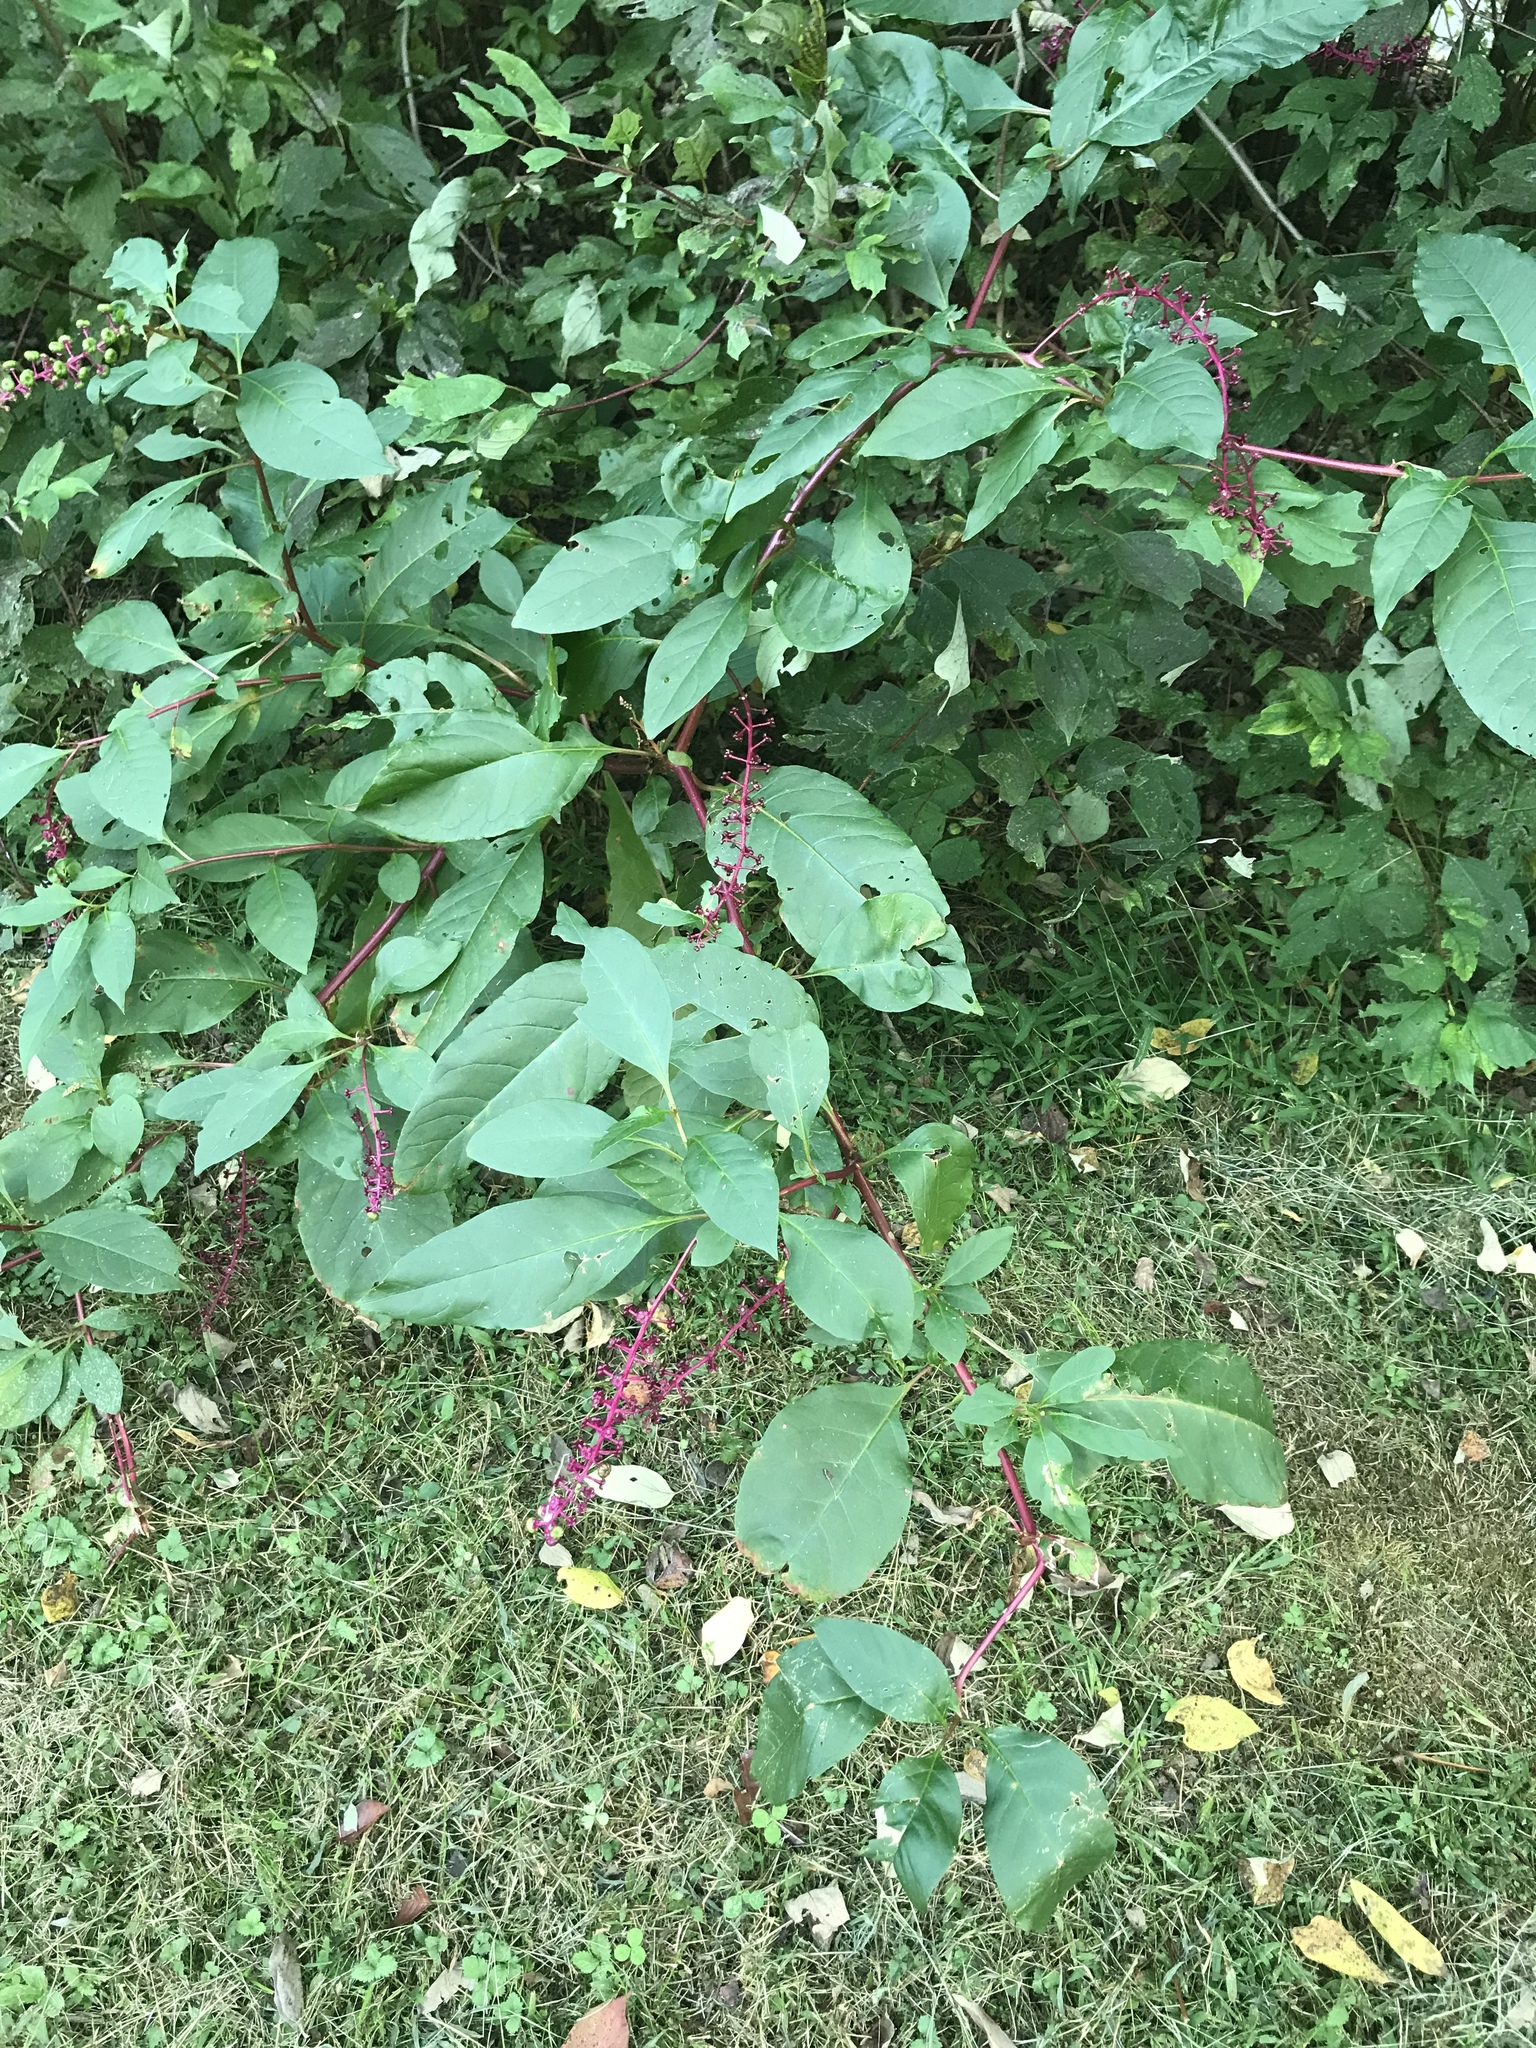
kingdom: Plantae
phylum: Tracheophyta
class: Magnoliopsida
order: Caryophyllales
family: Phytolaccaceae
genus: Phytolacca
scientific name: Phytolacca americana
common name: American pokeweed
